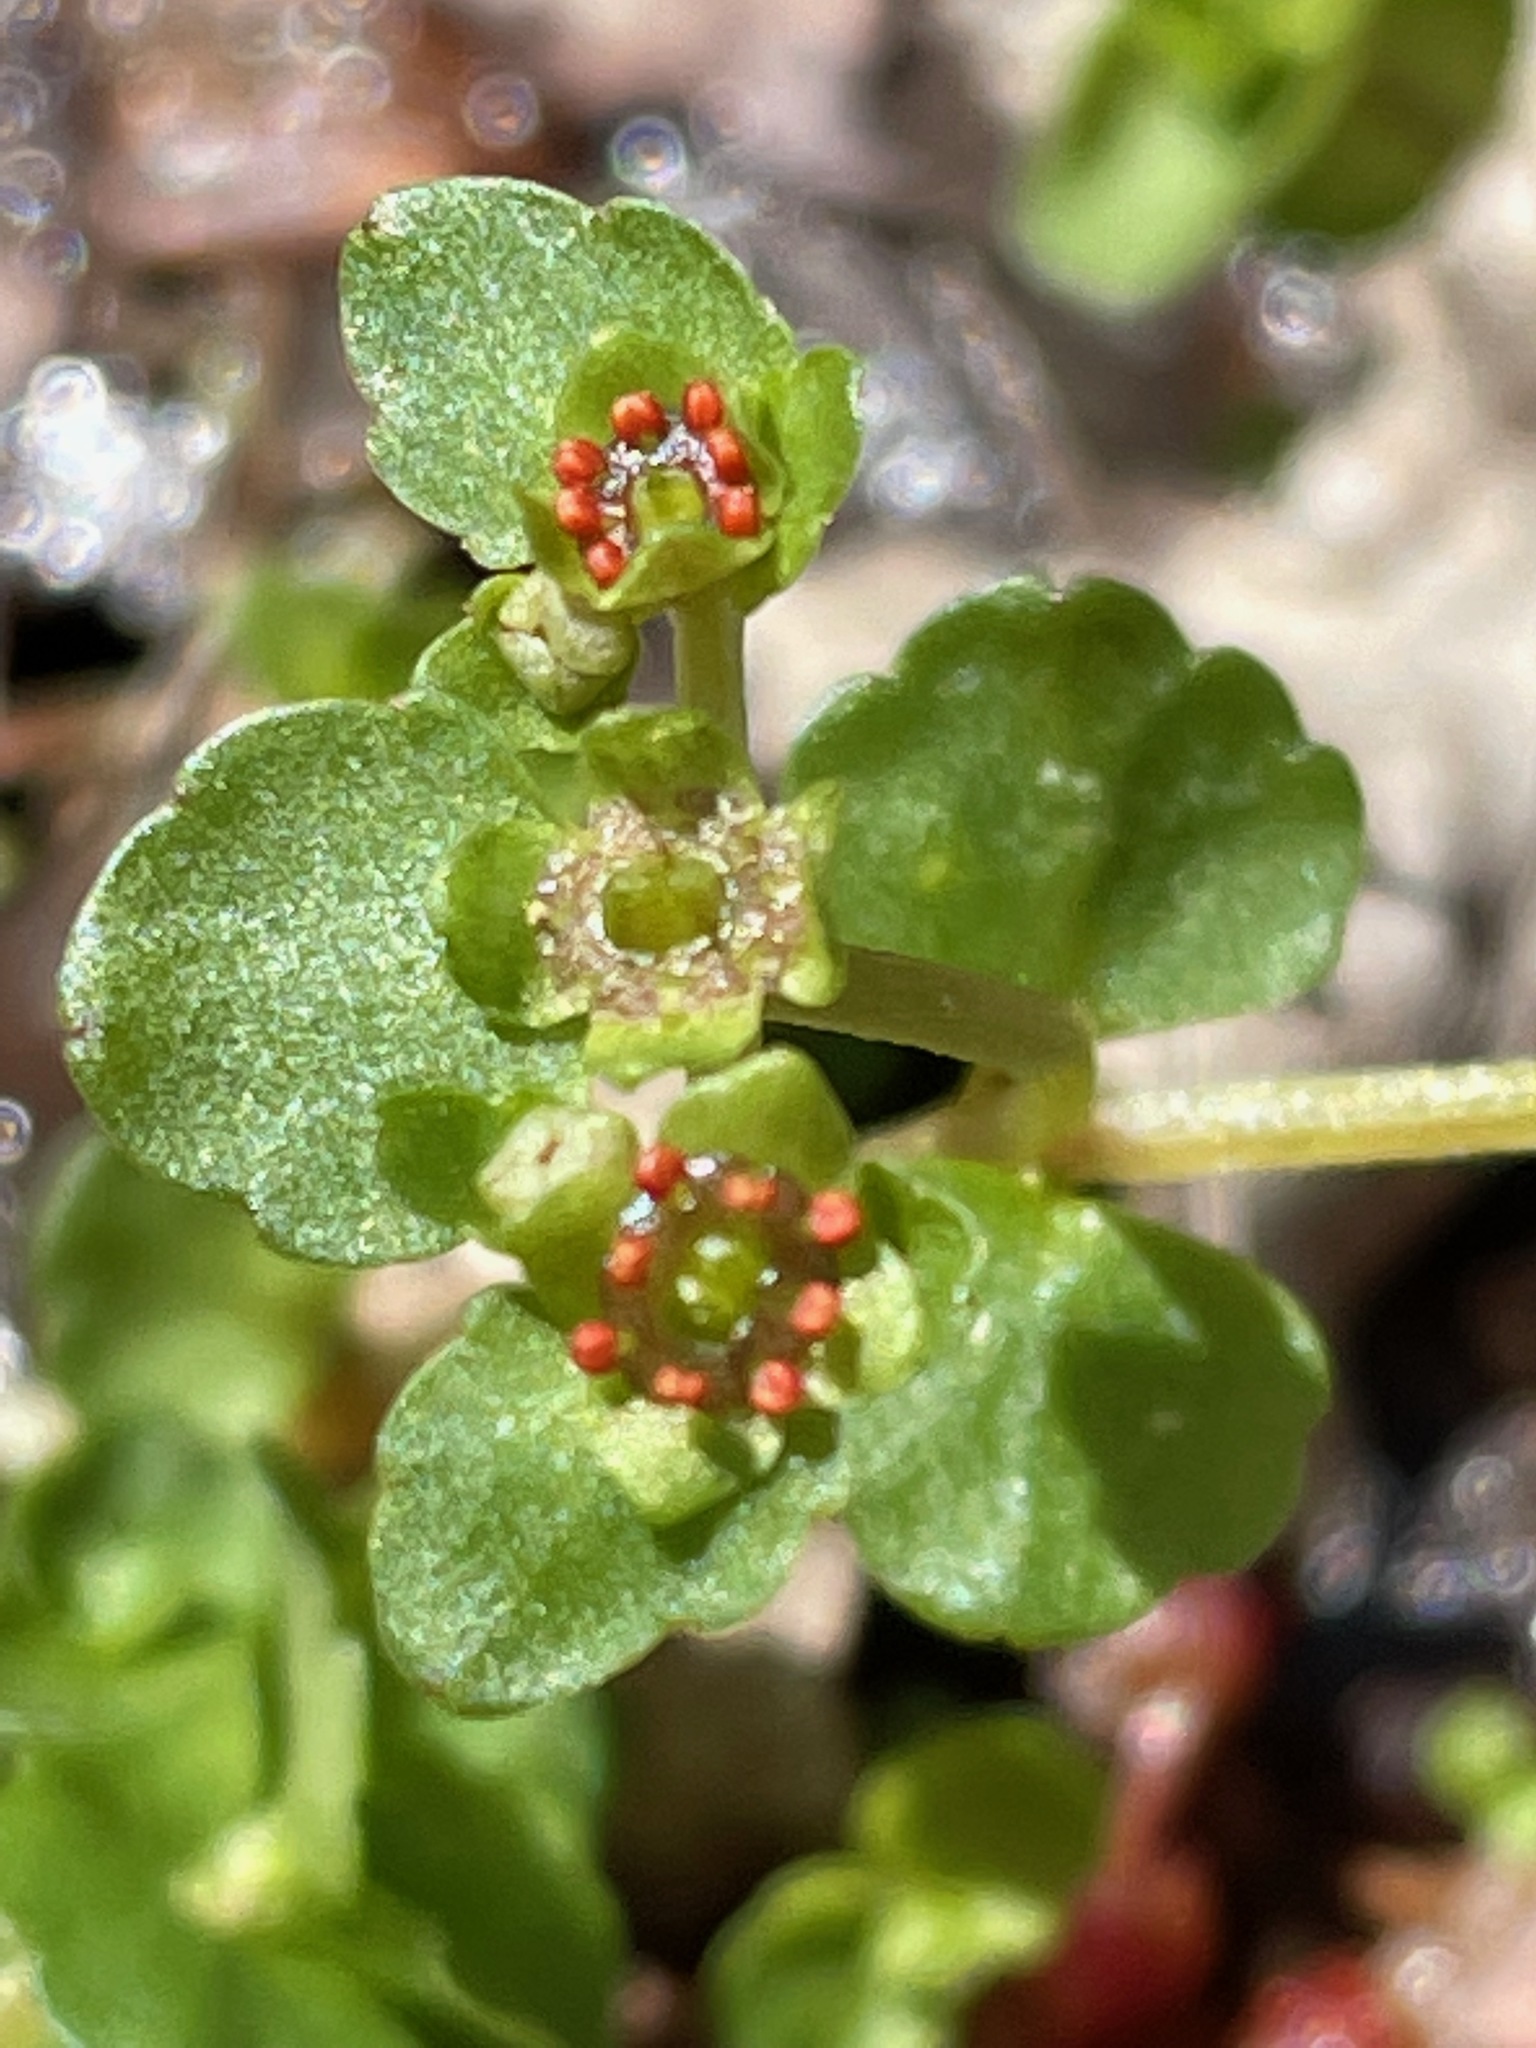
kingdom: Plantae
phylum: Tracheophyta
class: Magnoliopsida
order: Saxifragales
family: Saxifragaceae
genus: Chrysosplenium
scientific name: Chrysosplenium americanum
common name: American golden-saxifrage
